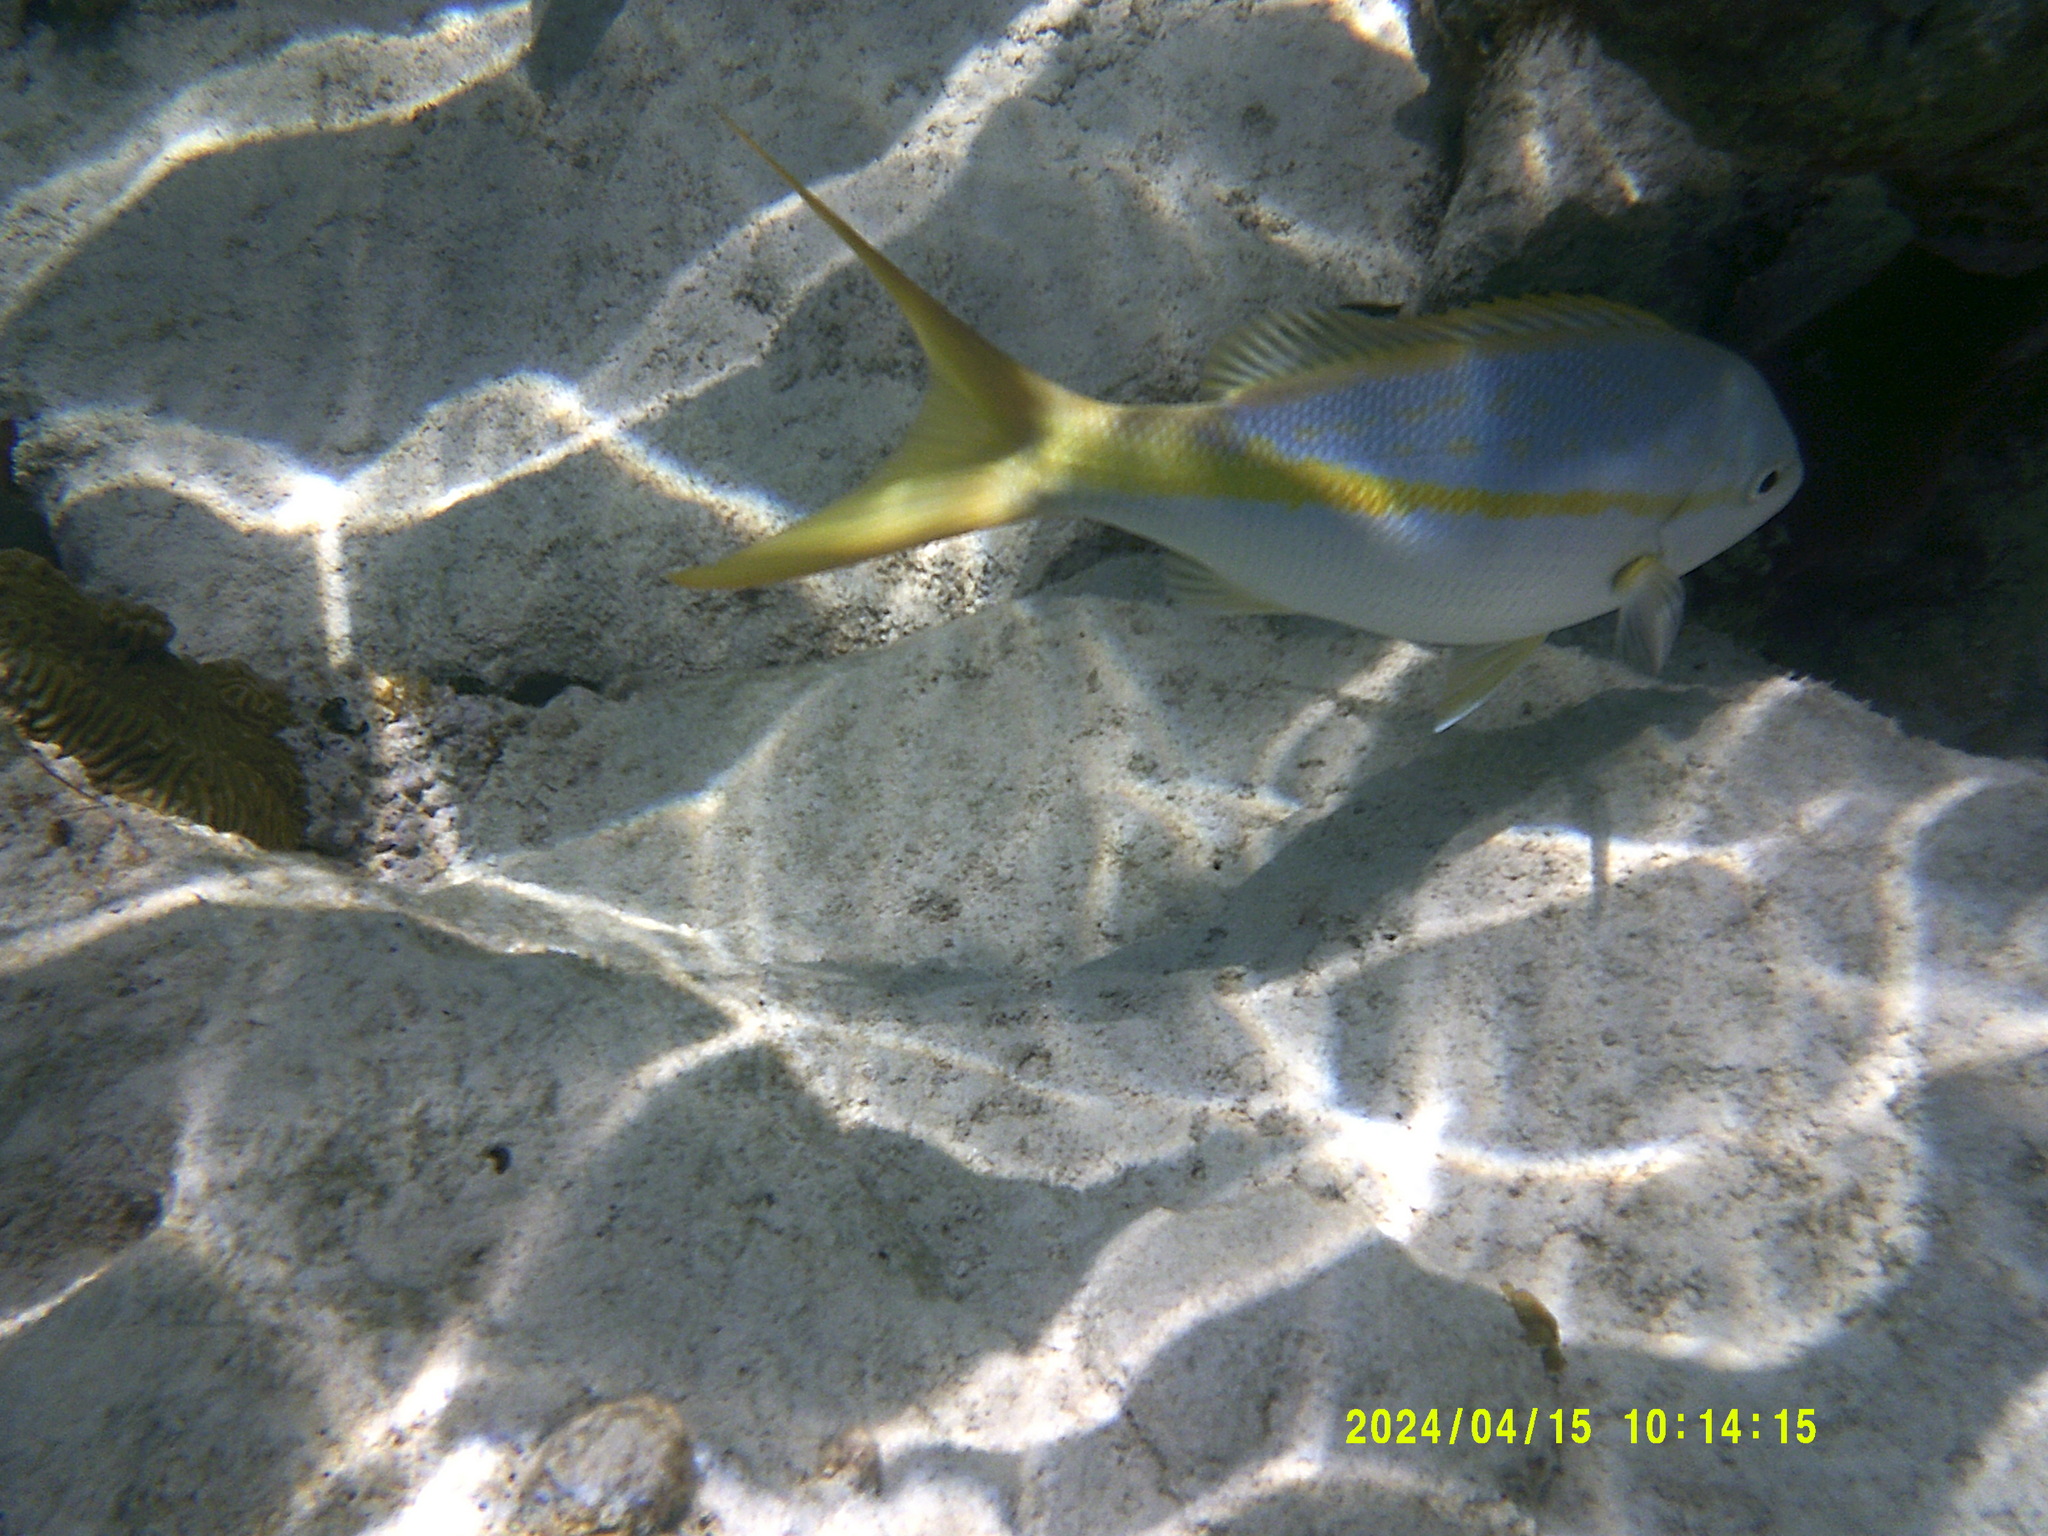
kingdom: Animalia
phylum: Chordata
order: Perciformes
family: Lutjanidae
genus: Ocyurus
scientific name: Ocyurus chrysurus
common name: Yellowtail snapper
